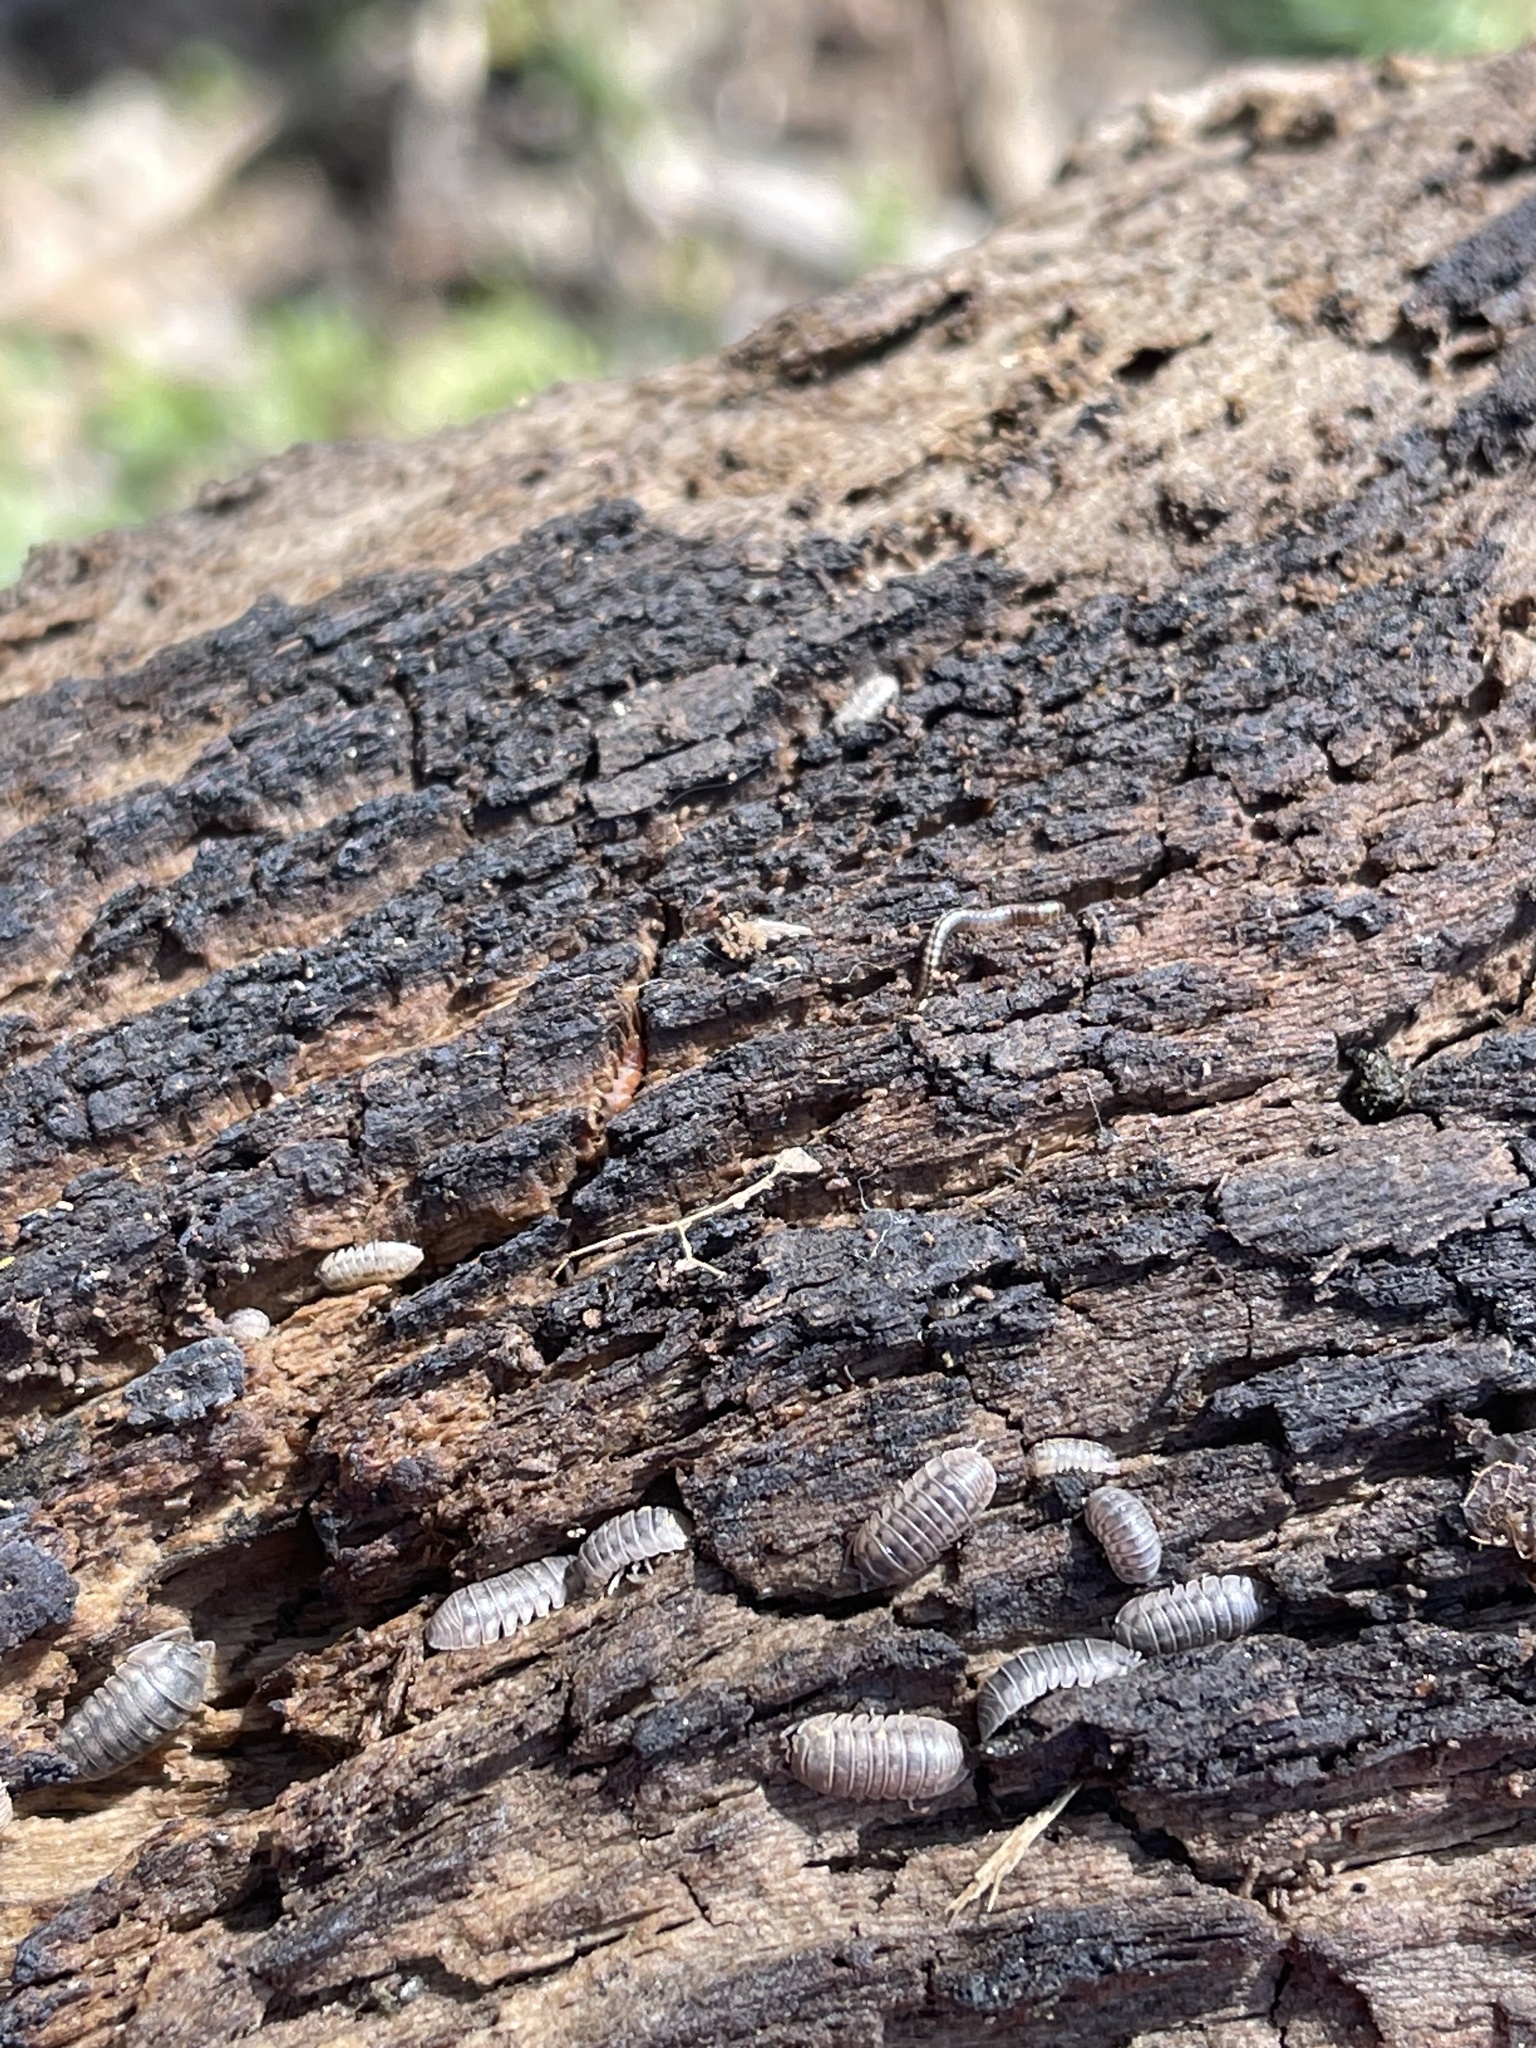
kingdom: Animalia
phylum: Arthropoda
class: Malacostraca
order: Isopoda
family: Armadillidiidae
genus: Armadillidium
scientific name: Armadillidium nasatum
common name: Isopod
